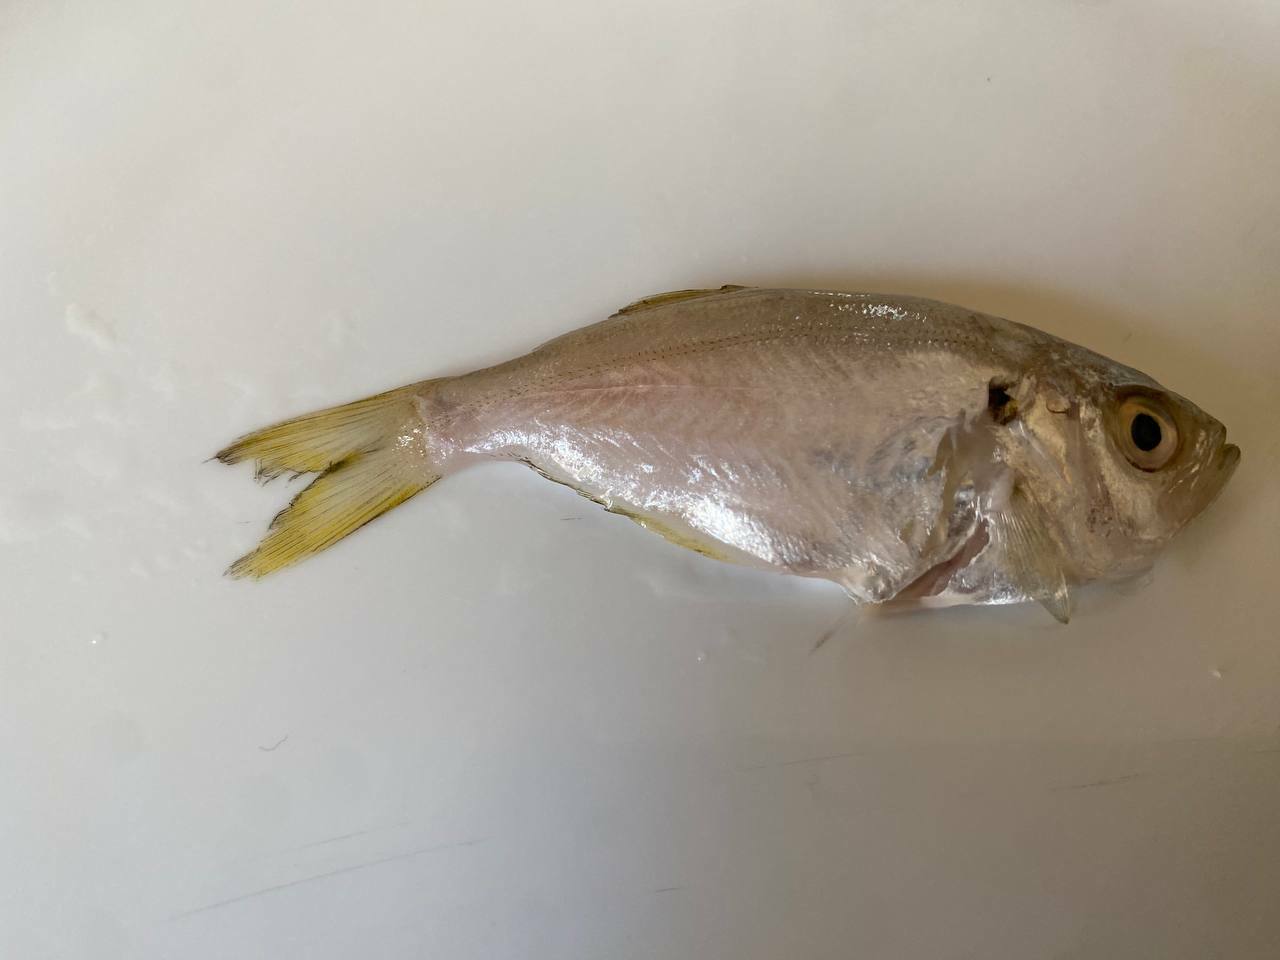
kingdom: Animalia
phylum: Chordata
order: Perciformes
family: Lactariidae
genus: Lactarius
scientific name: Lactarius lactarius
